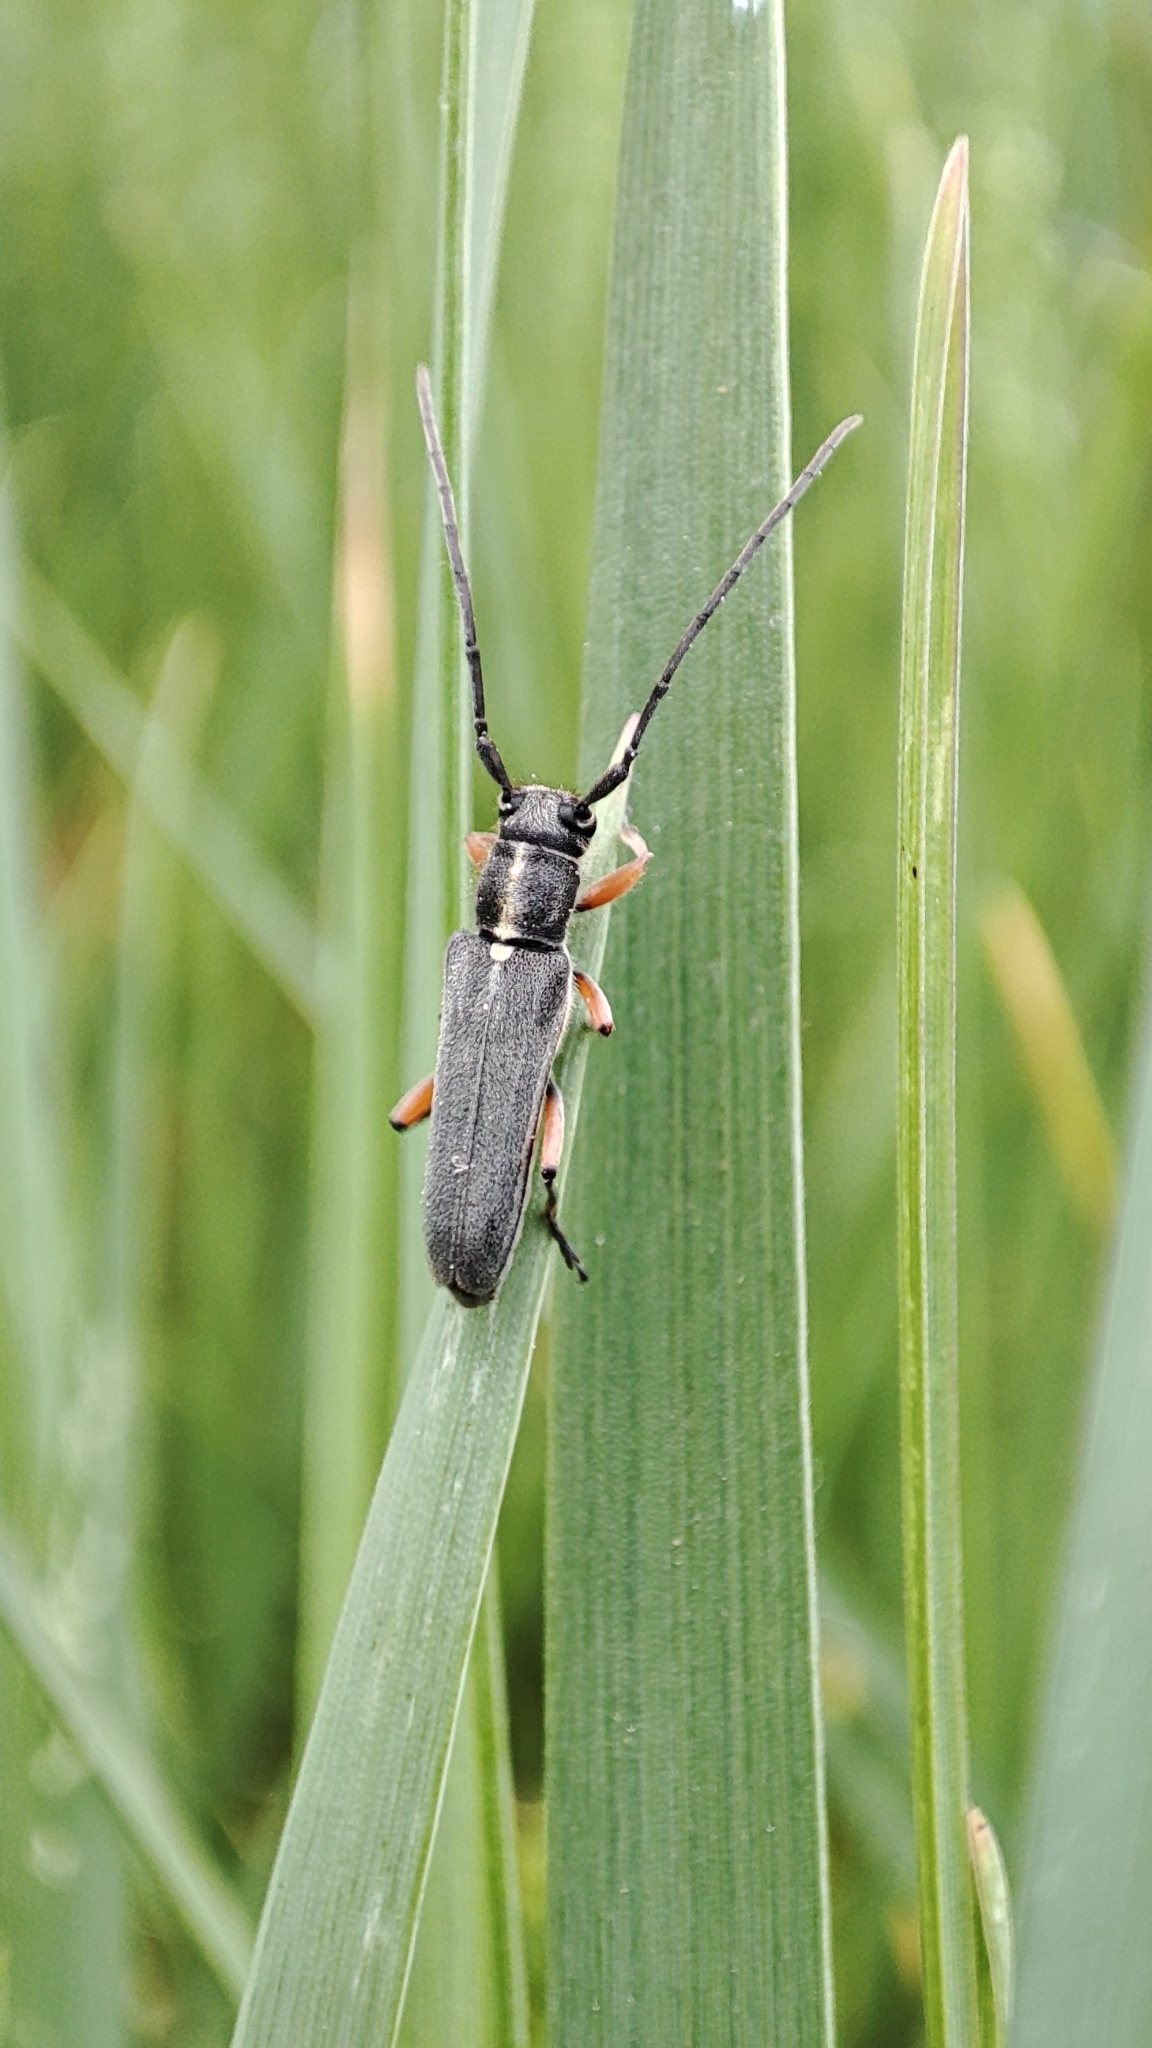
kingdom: Animalia
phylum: Arthropoda
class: Insecta
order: Coleoptera
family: Cerambycidae
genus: Phytoecia
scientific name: Phytoecia icterica
